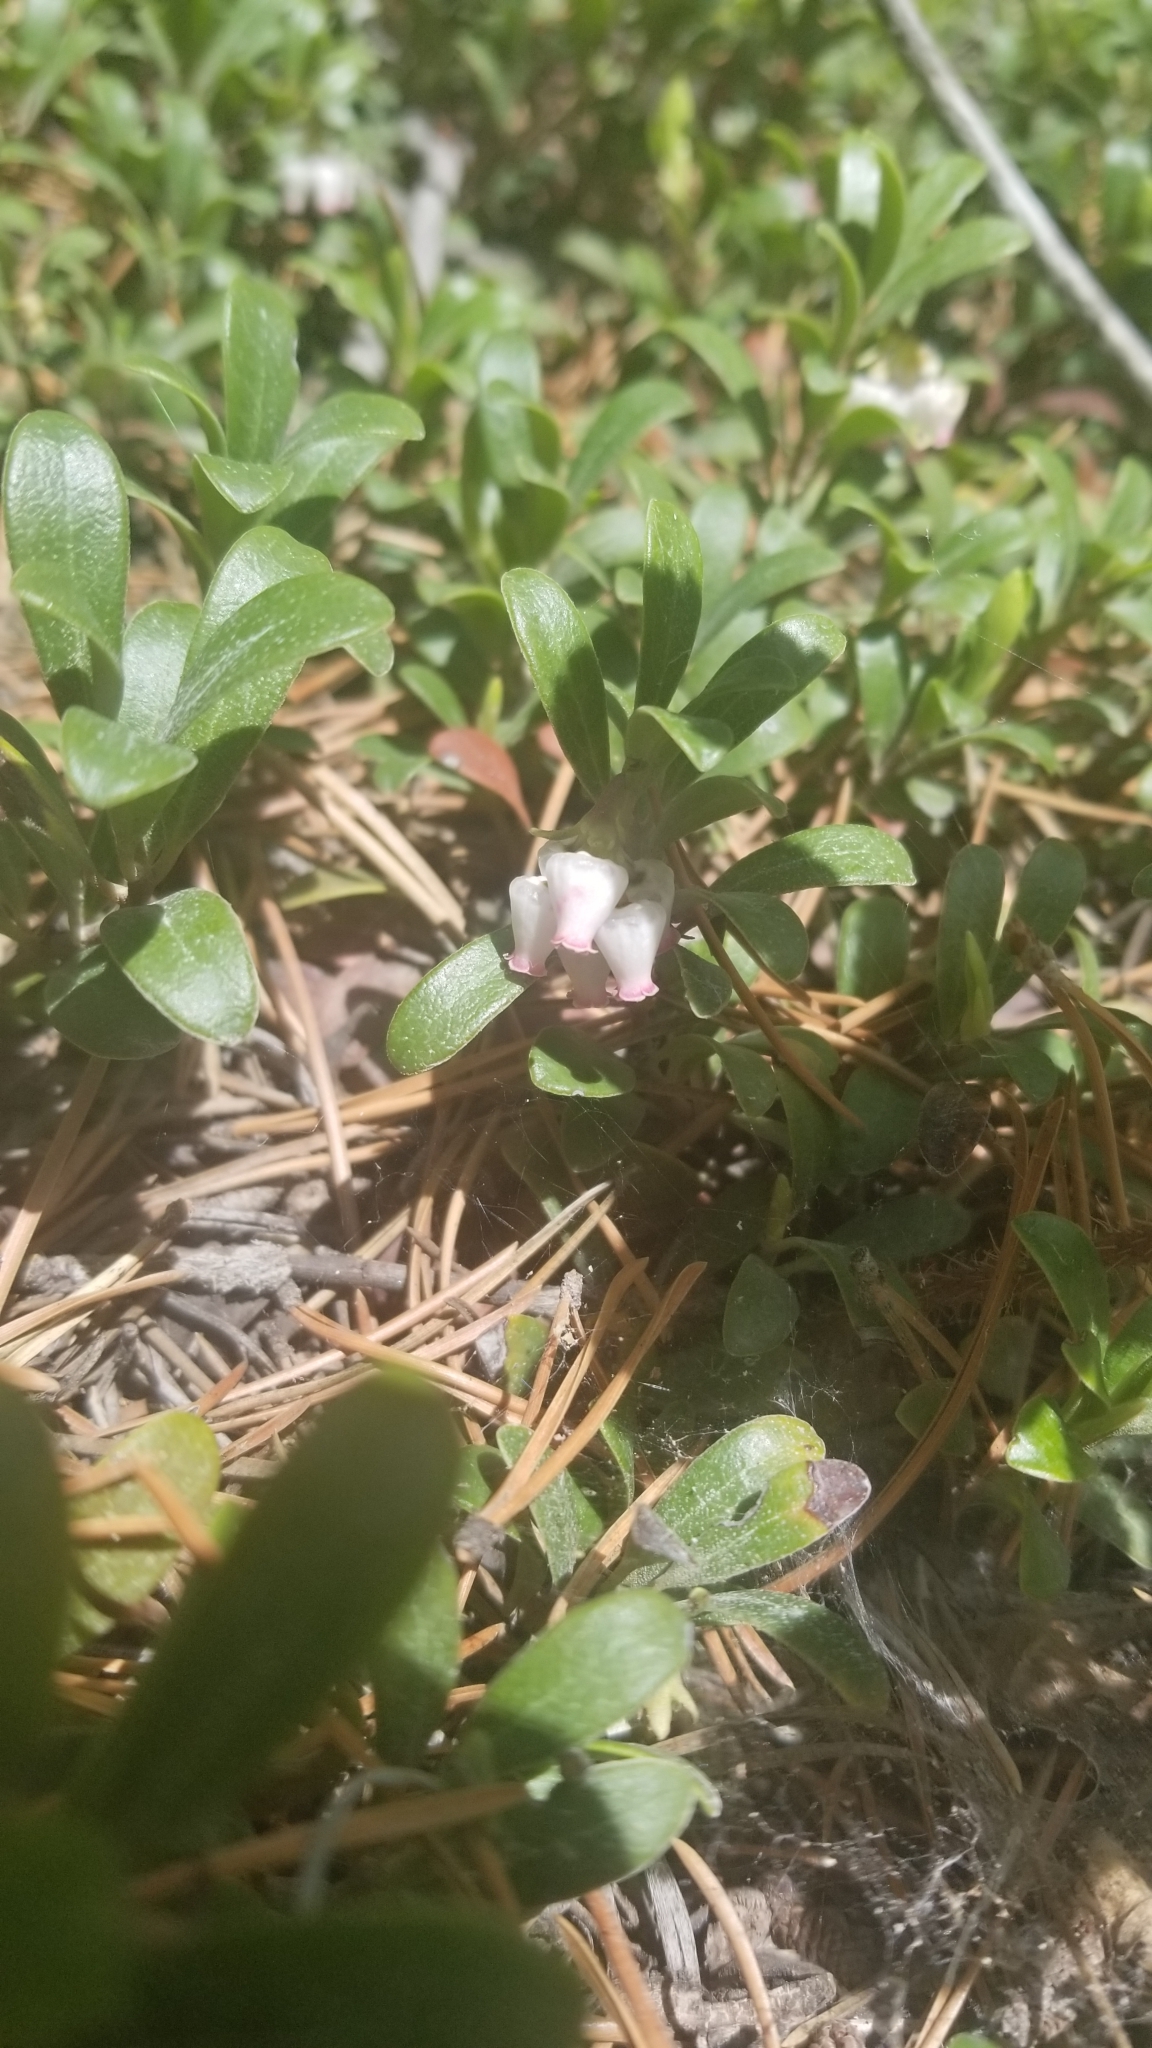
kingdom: Plantae
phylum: Tracheophyta
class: Magnoliopsida
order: Ericales
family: Ericaceae
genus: Arctostaphylos
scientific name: Arctostaphylos uva-ursi
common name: Bearberry
